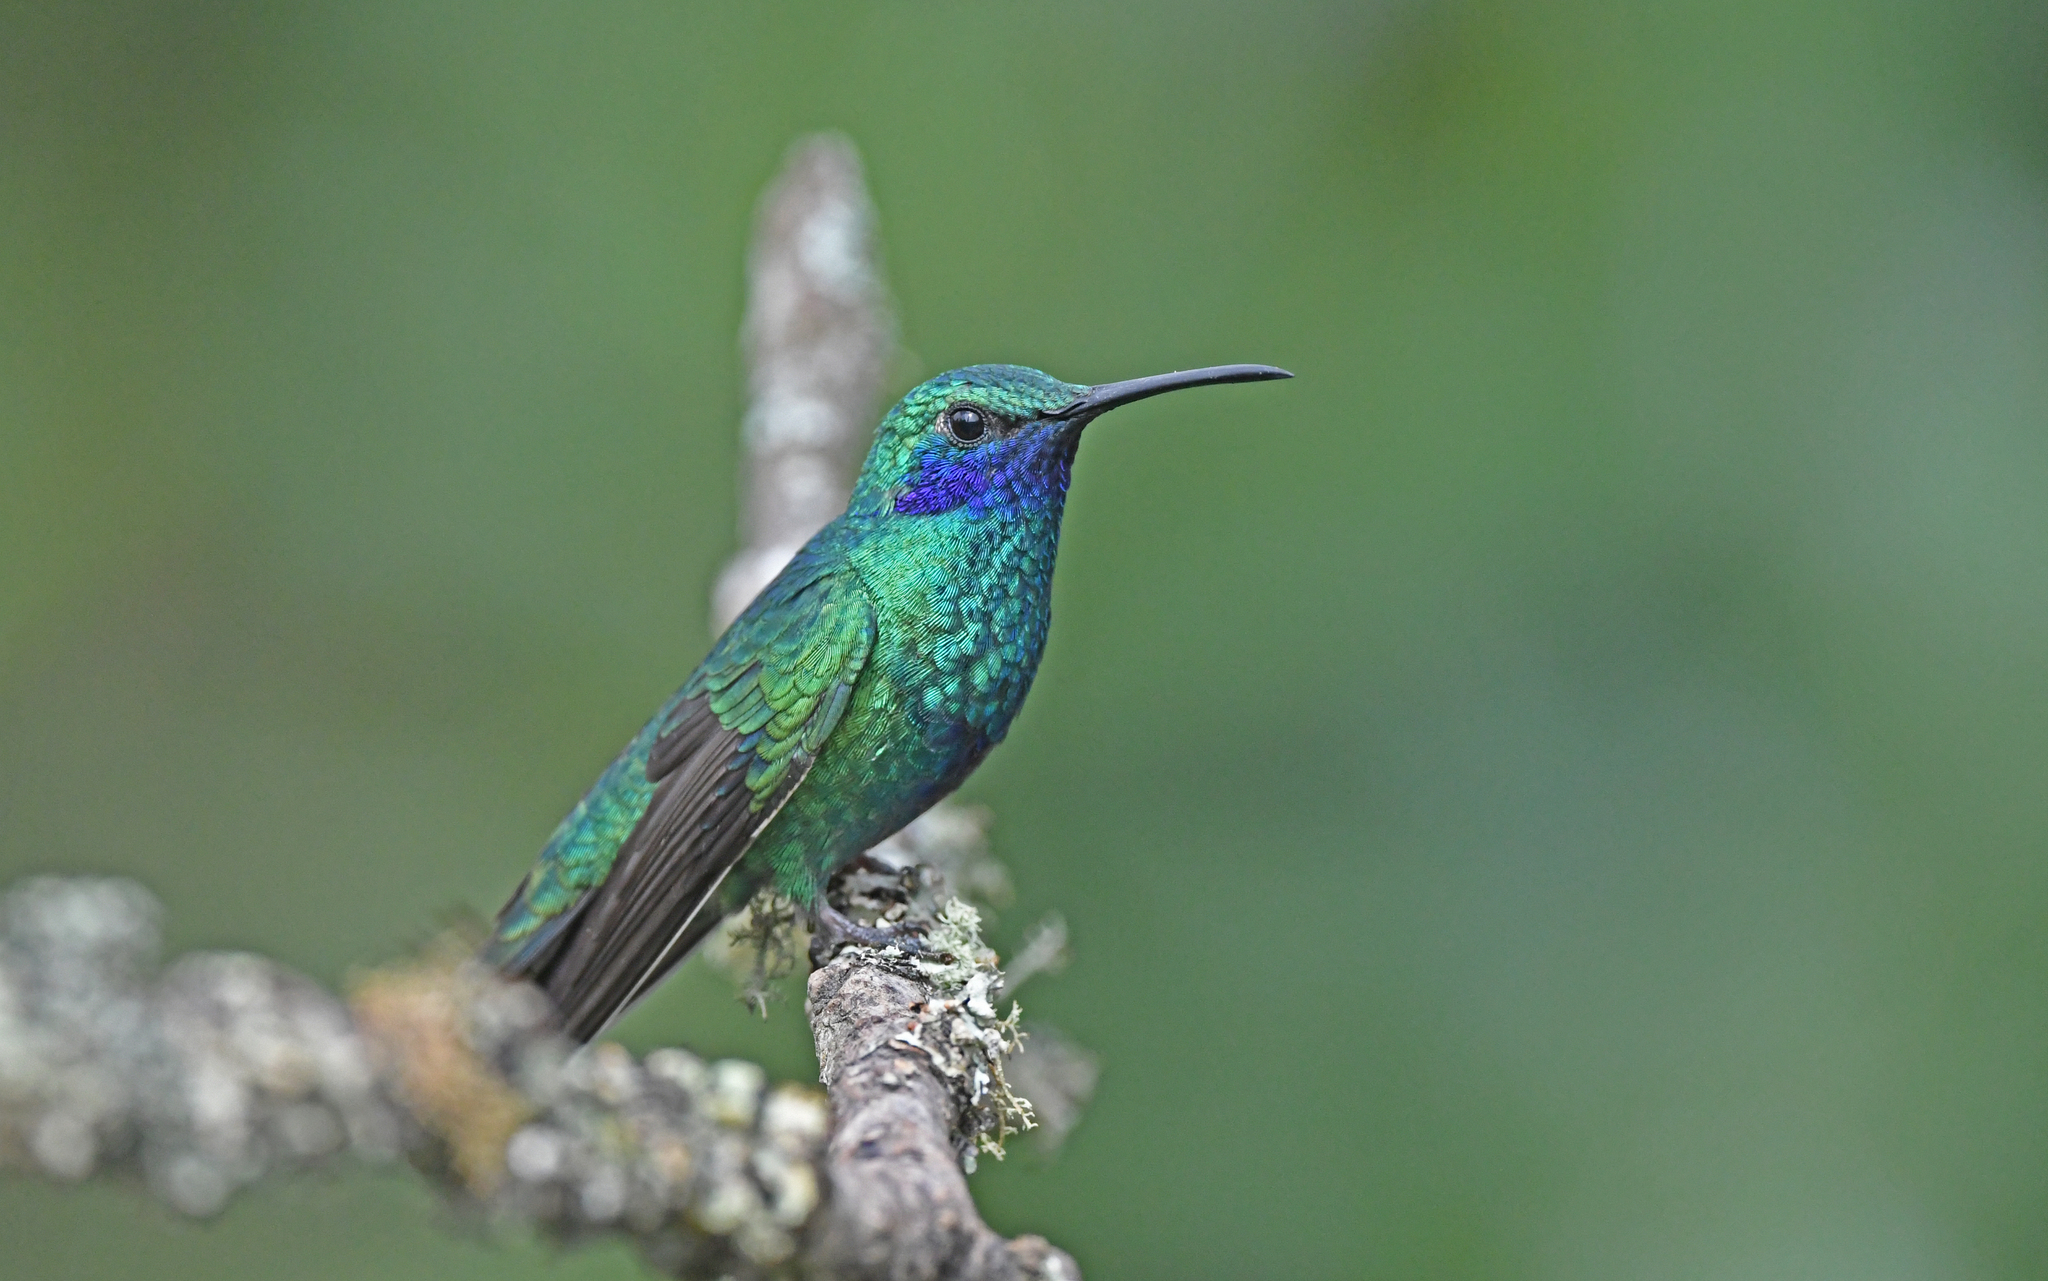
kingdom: Animalia
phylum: Chordata
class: Aves
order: Apodiformes
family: Trochilidae
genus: Colibri
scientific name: Colibri coruscans
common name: Sparkling violetear
